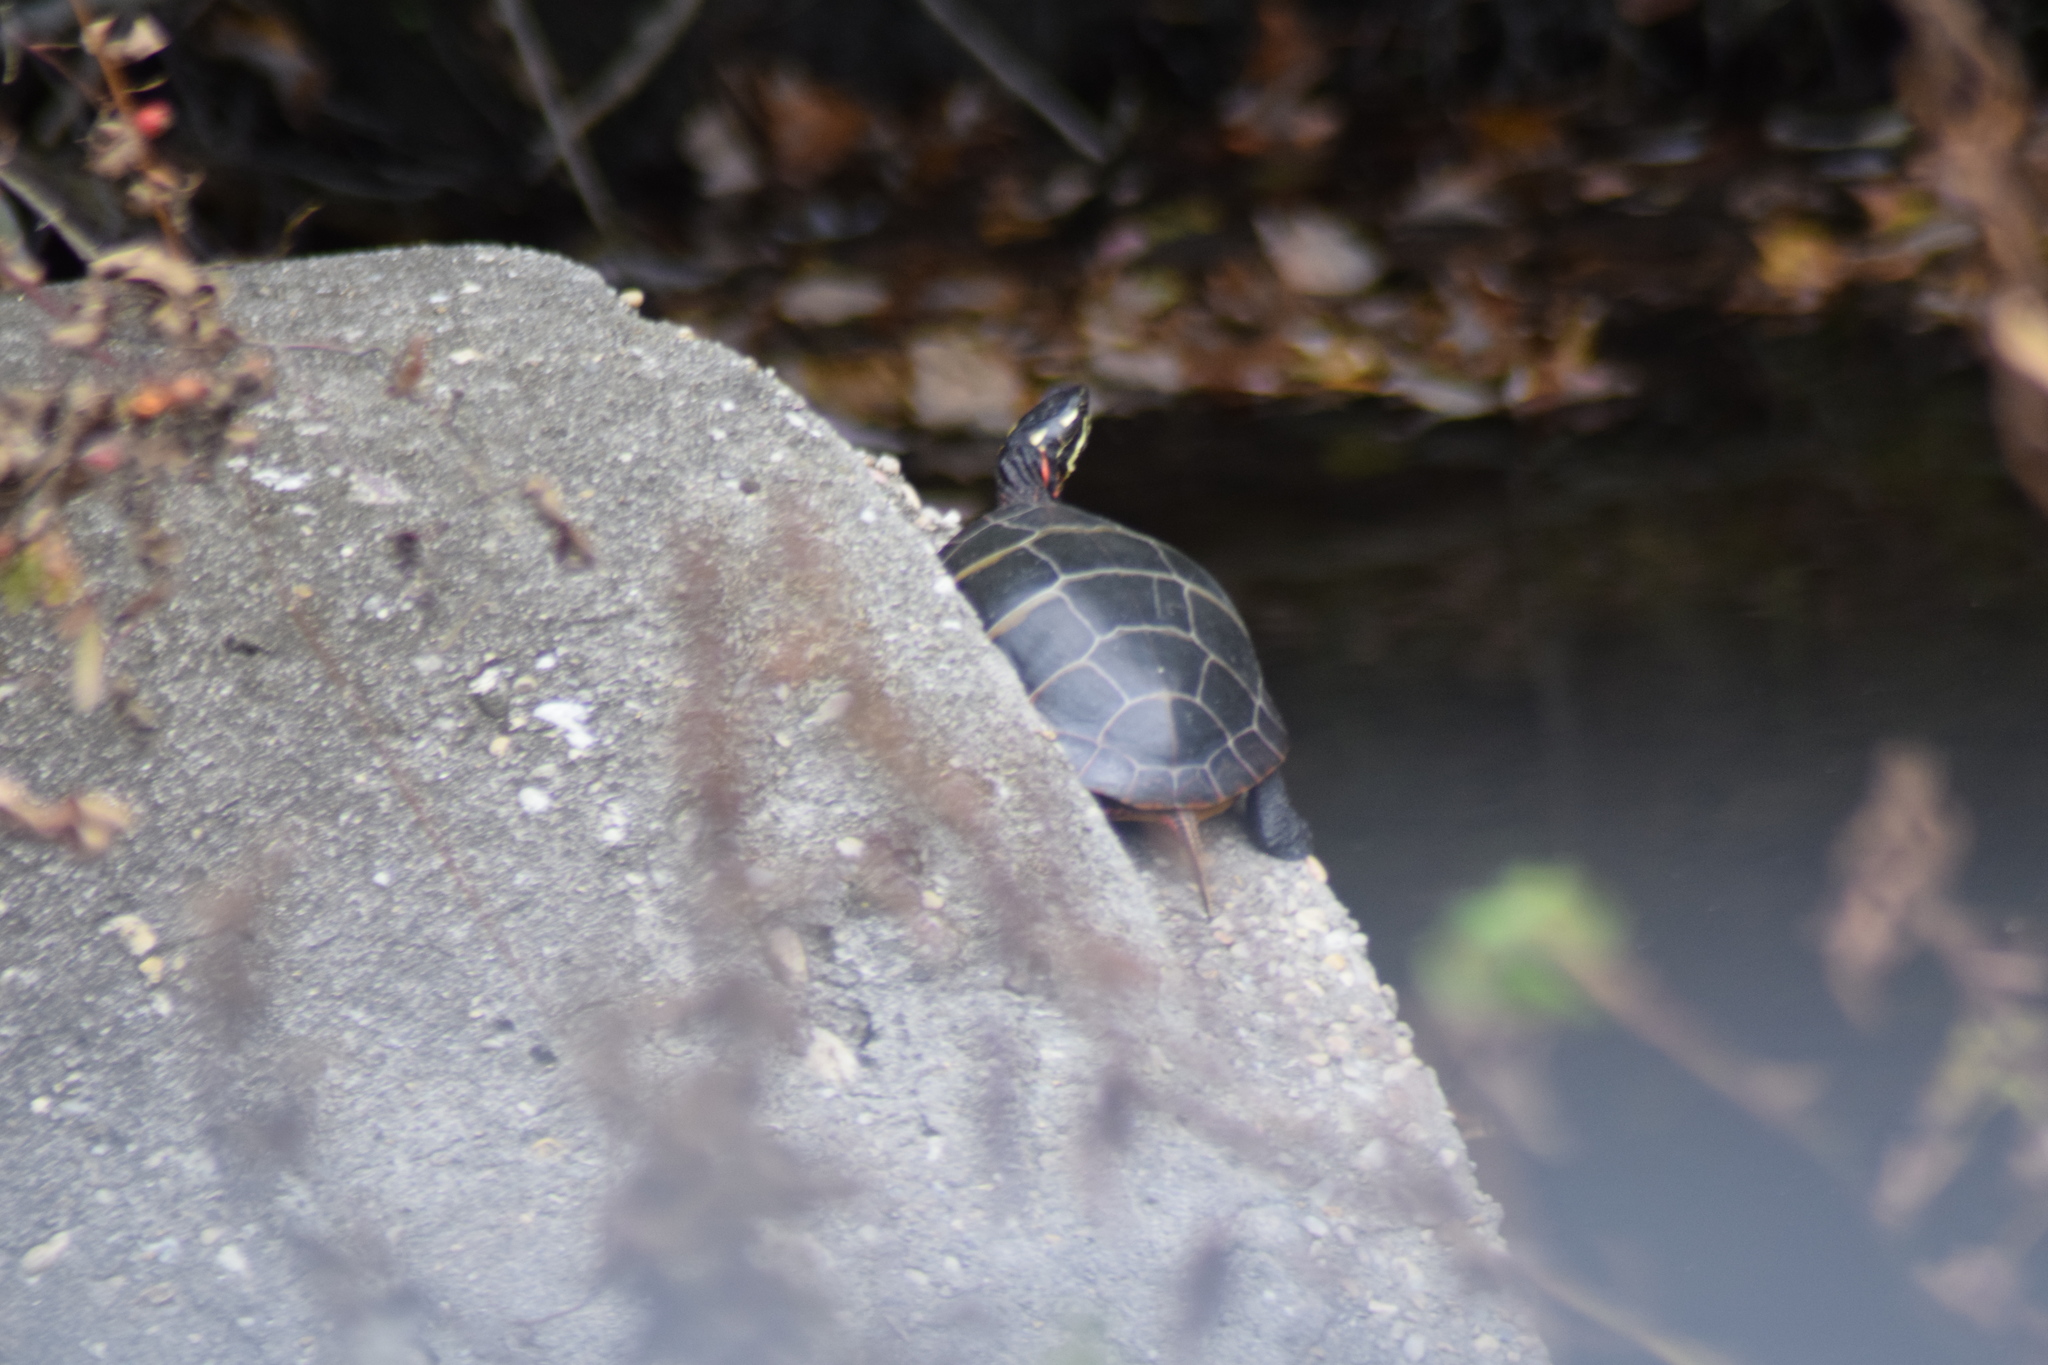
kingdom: Animalia
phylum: Chordata
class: Testudines
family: Emydidae
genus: Chrysemys
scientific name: Chrysemys picta
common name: Painted turtle
